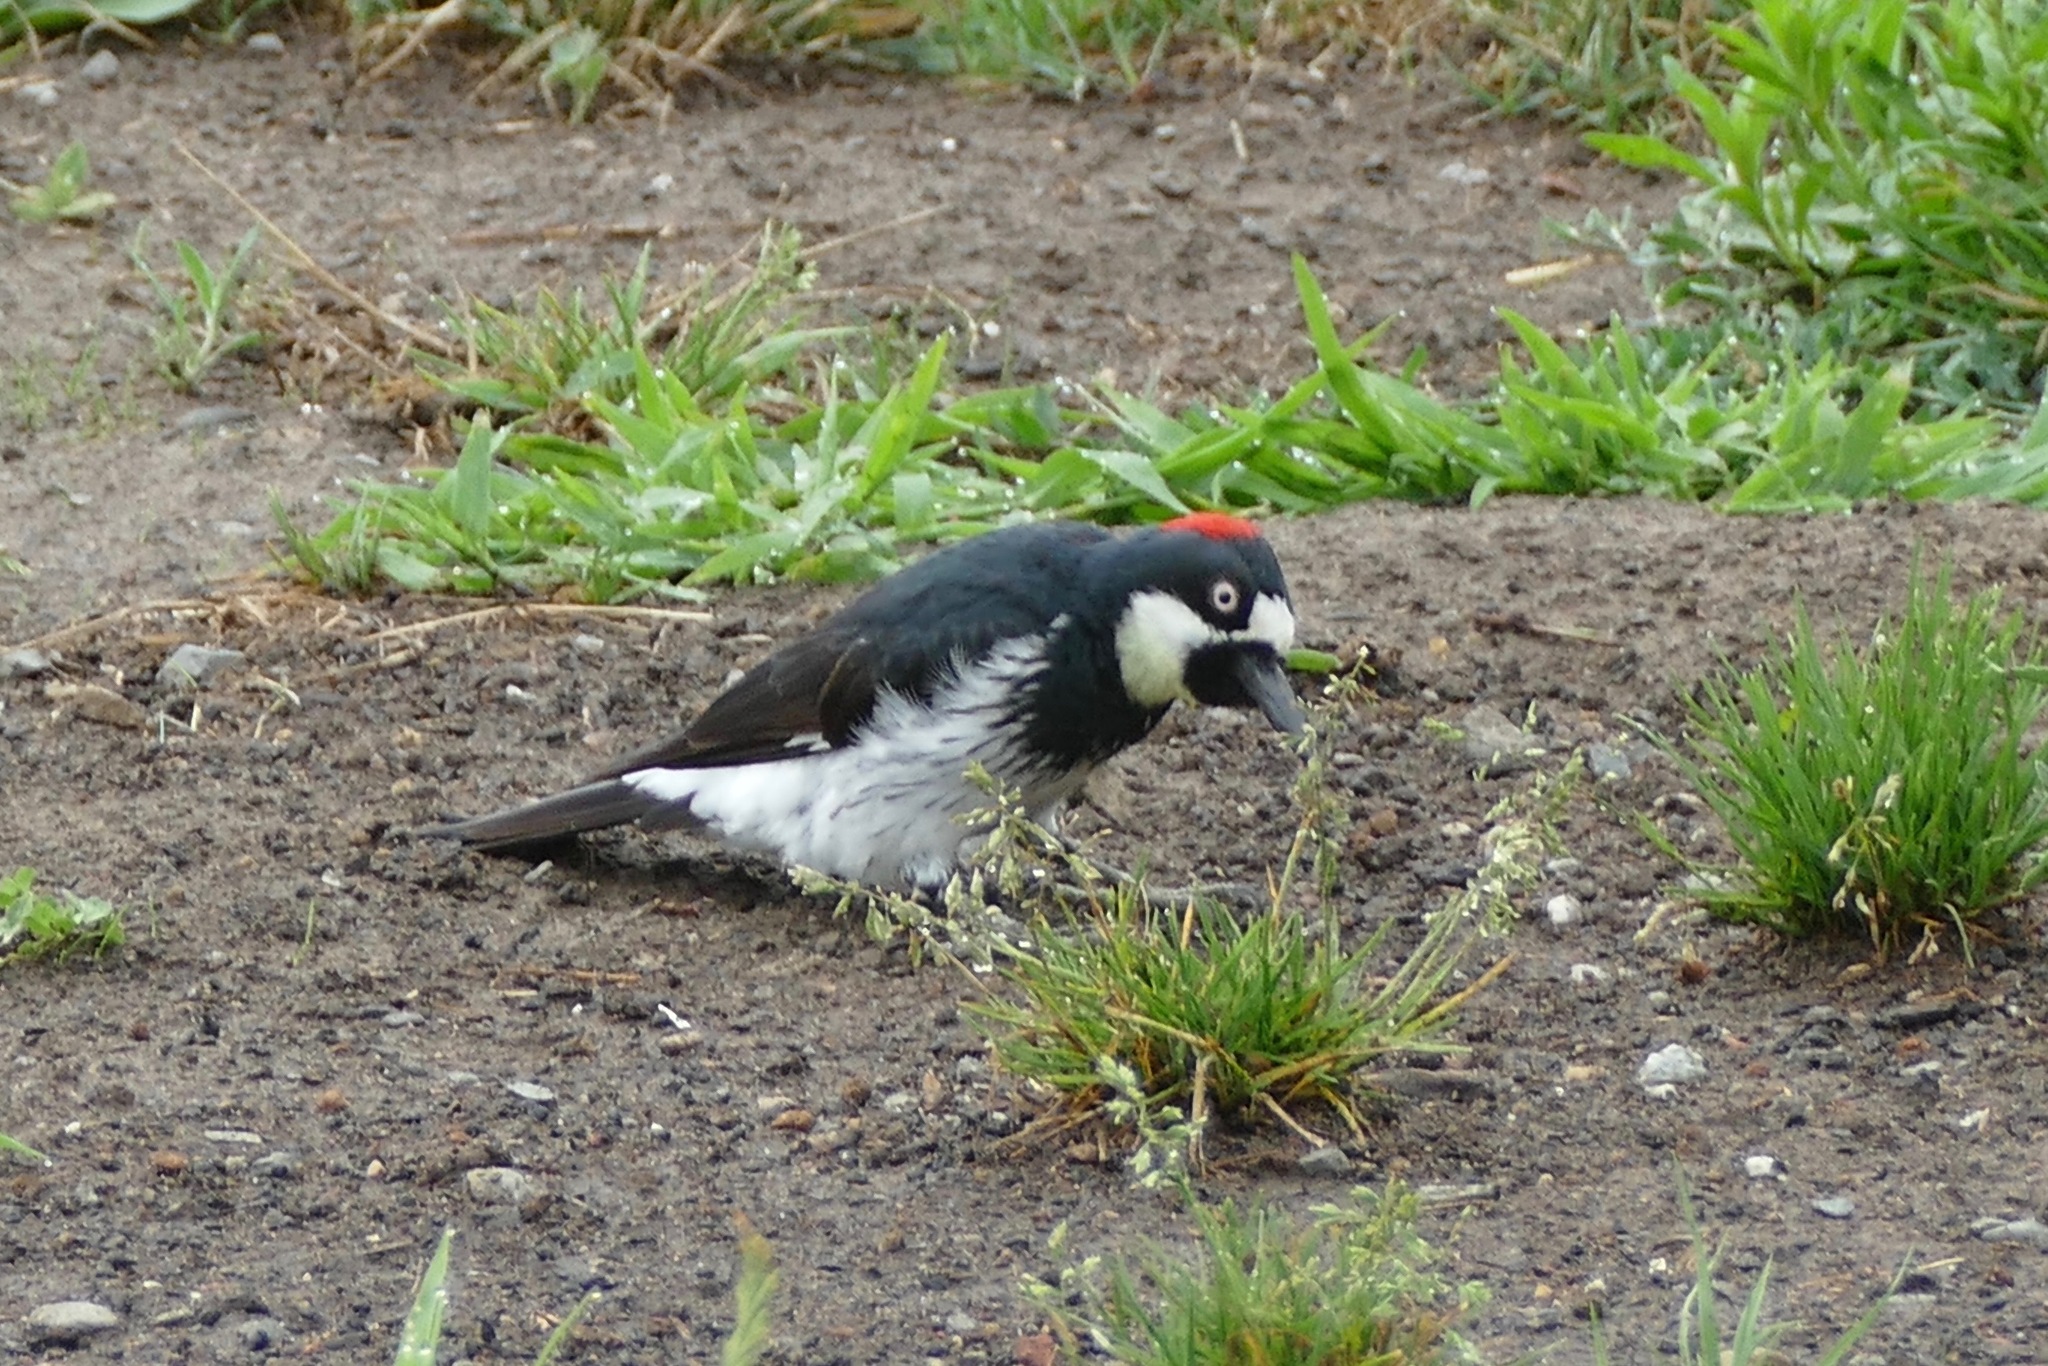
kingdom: Animalia
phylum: Chordata
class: Aves
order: Piciformes
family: Picidae
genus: Melanerpes
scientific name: Melanerpes formicivorus
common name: Acorn woodpecker
